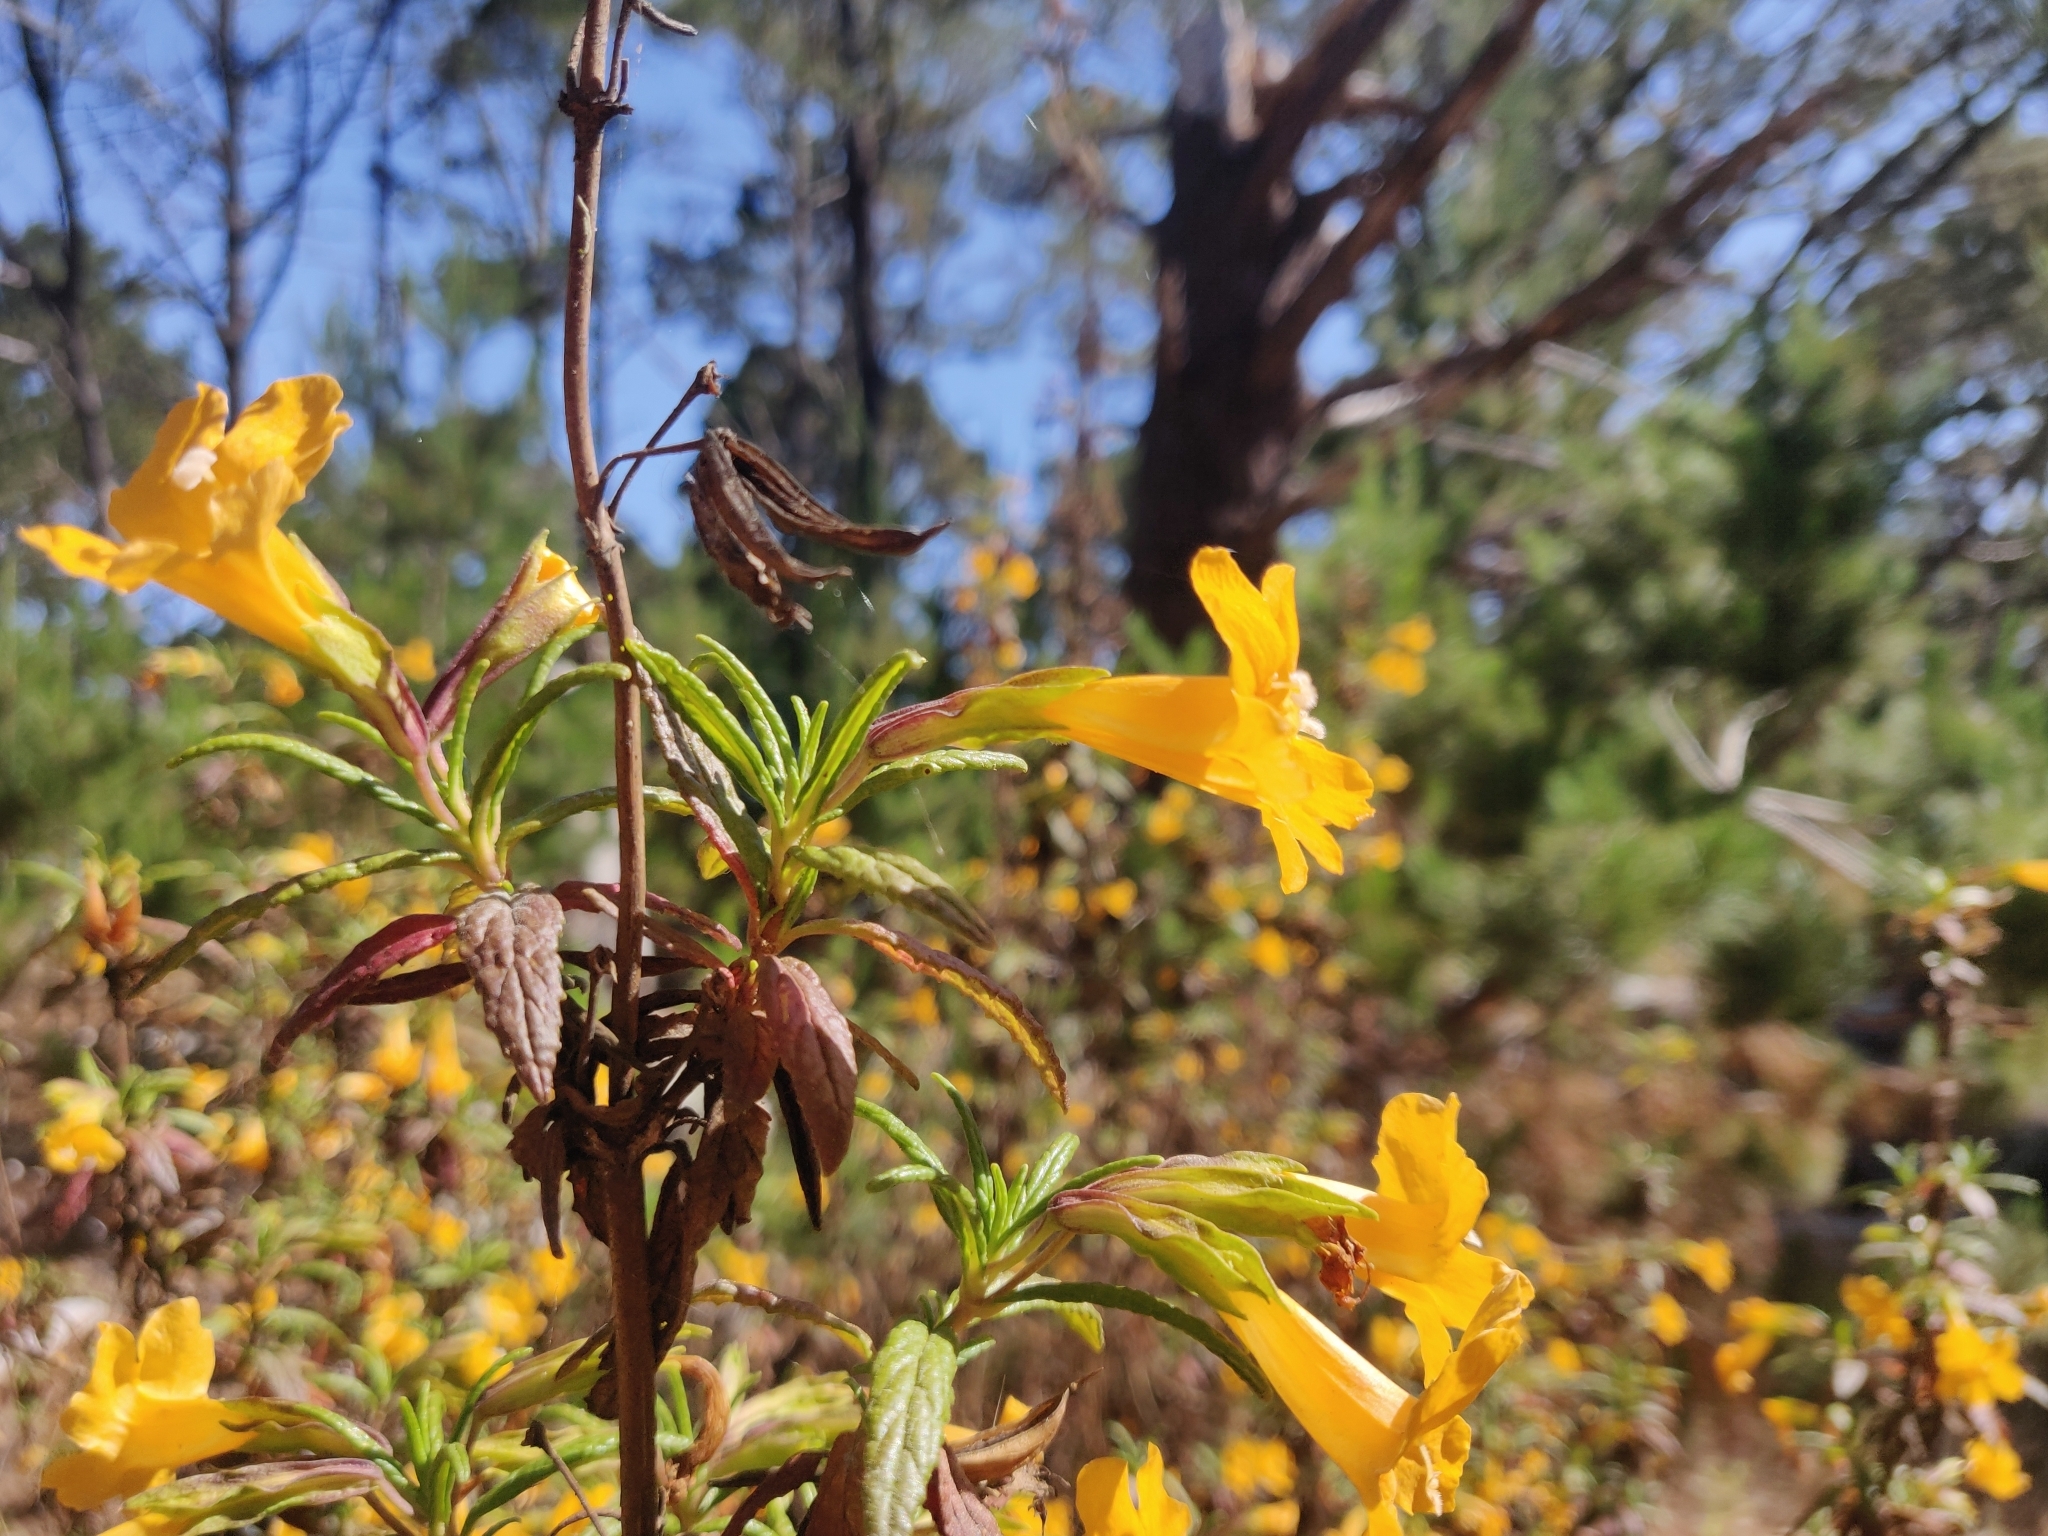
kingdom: Plantae
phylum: Tracheophyta
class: Magnoliopsida
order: Lamiales
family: Phrymaceae
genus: Diplacus
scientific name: Diplacus aurantiacus
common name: Bush monkey-flower
